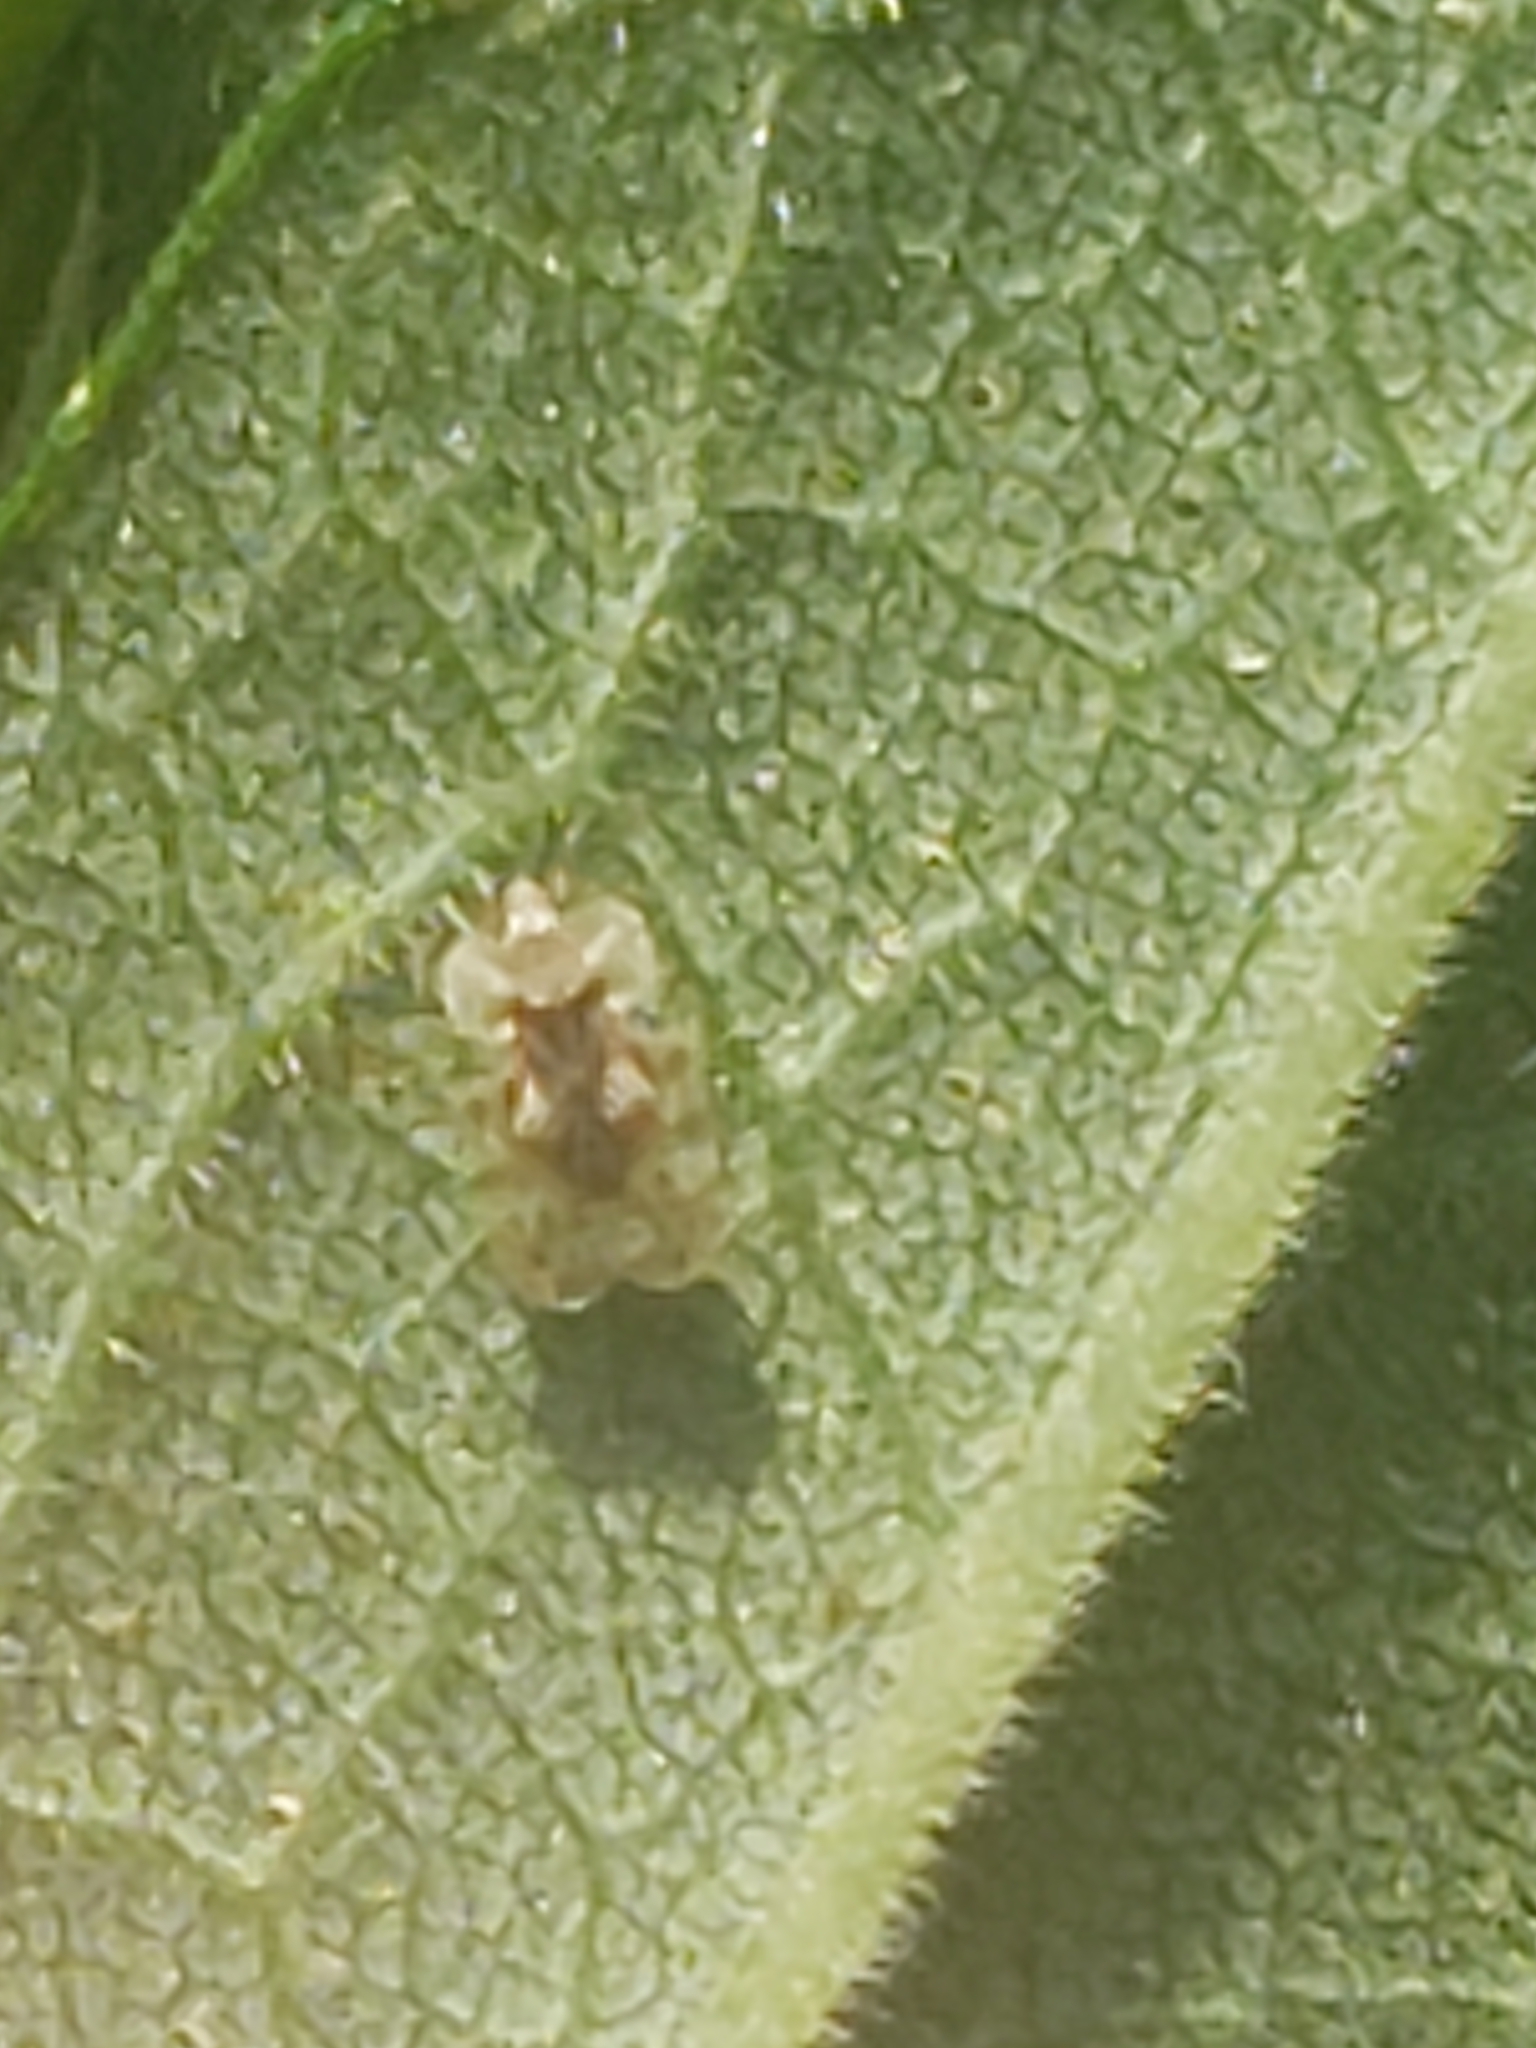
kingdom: Animalia
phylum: Arthropoda
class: Insecta
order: Hemiptera
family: Tingidae
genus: Corythucha
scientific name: Corythucha marmorata
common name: Chrysanthemum lace bug
